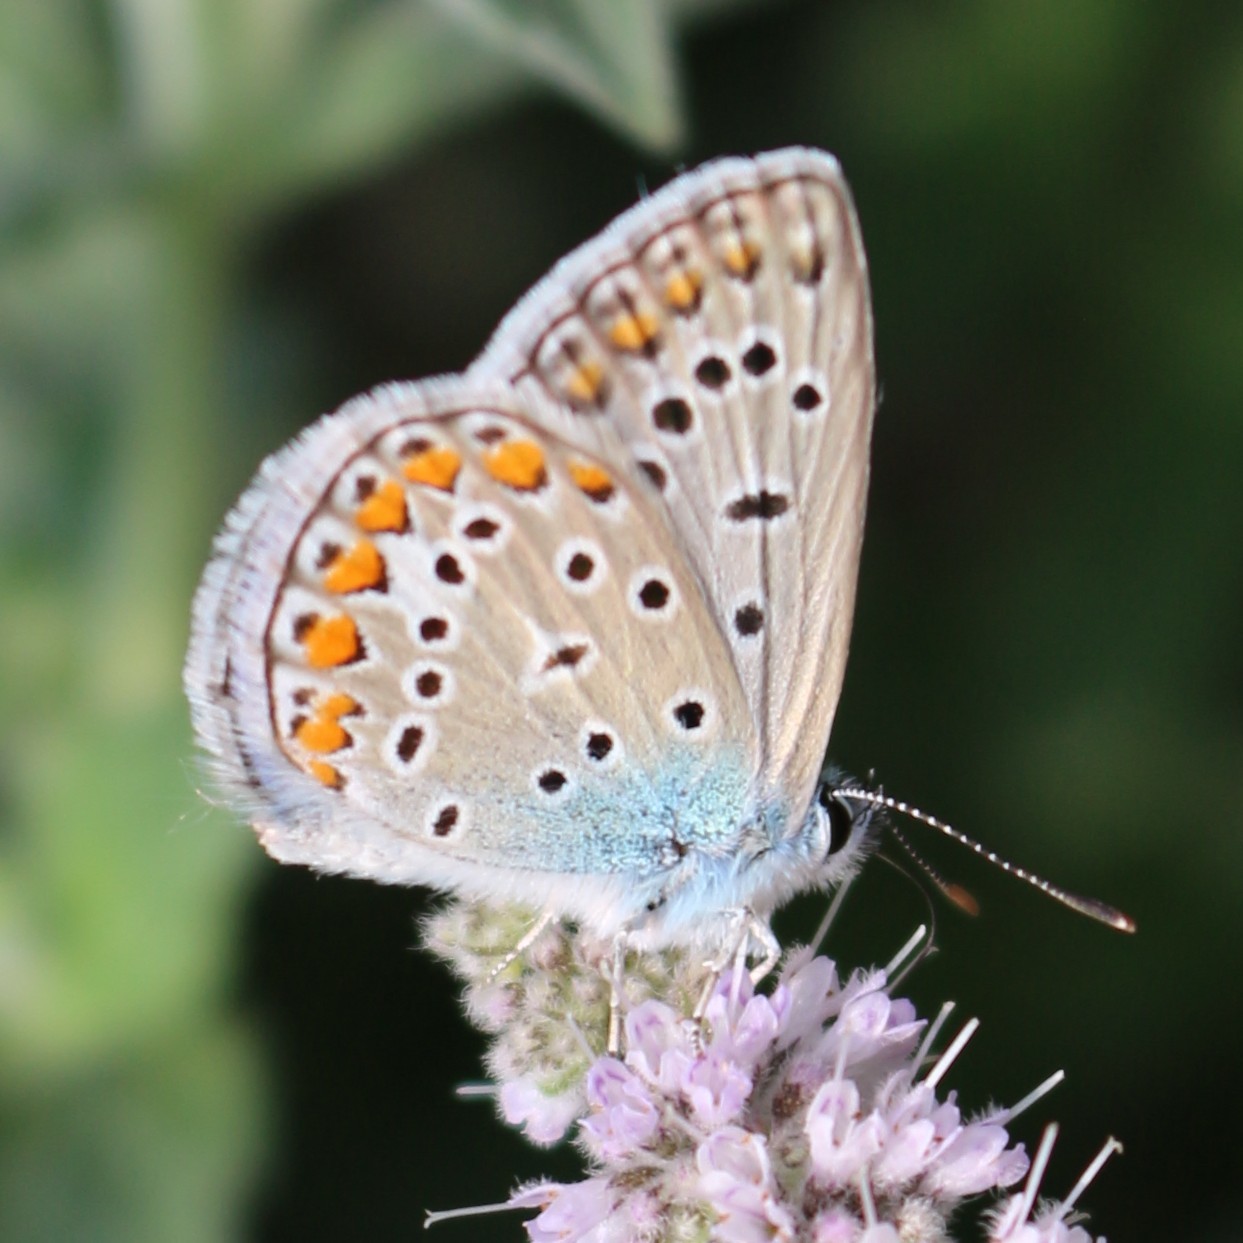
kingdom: Animalia
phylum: Arthropoda
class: Insecta
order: Lepidoptera
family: Lycaenidae
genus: Polyommatus
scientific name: Polyommatus icarus
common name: Common blue
